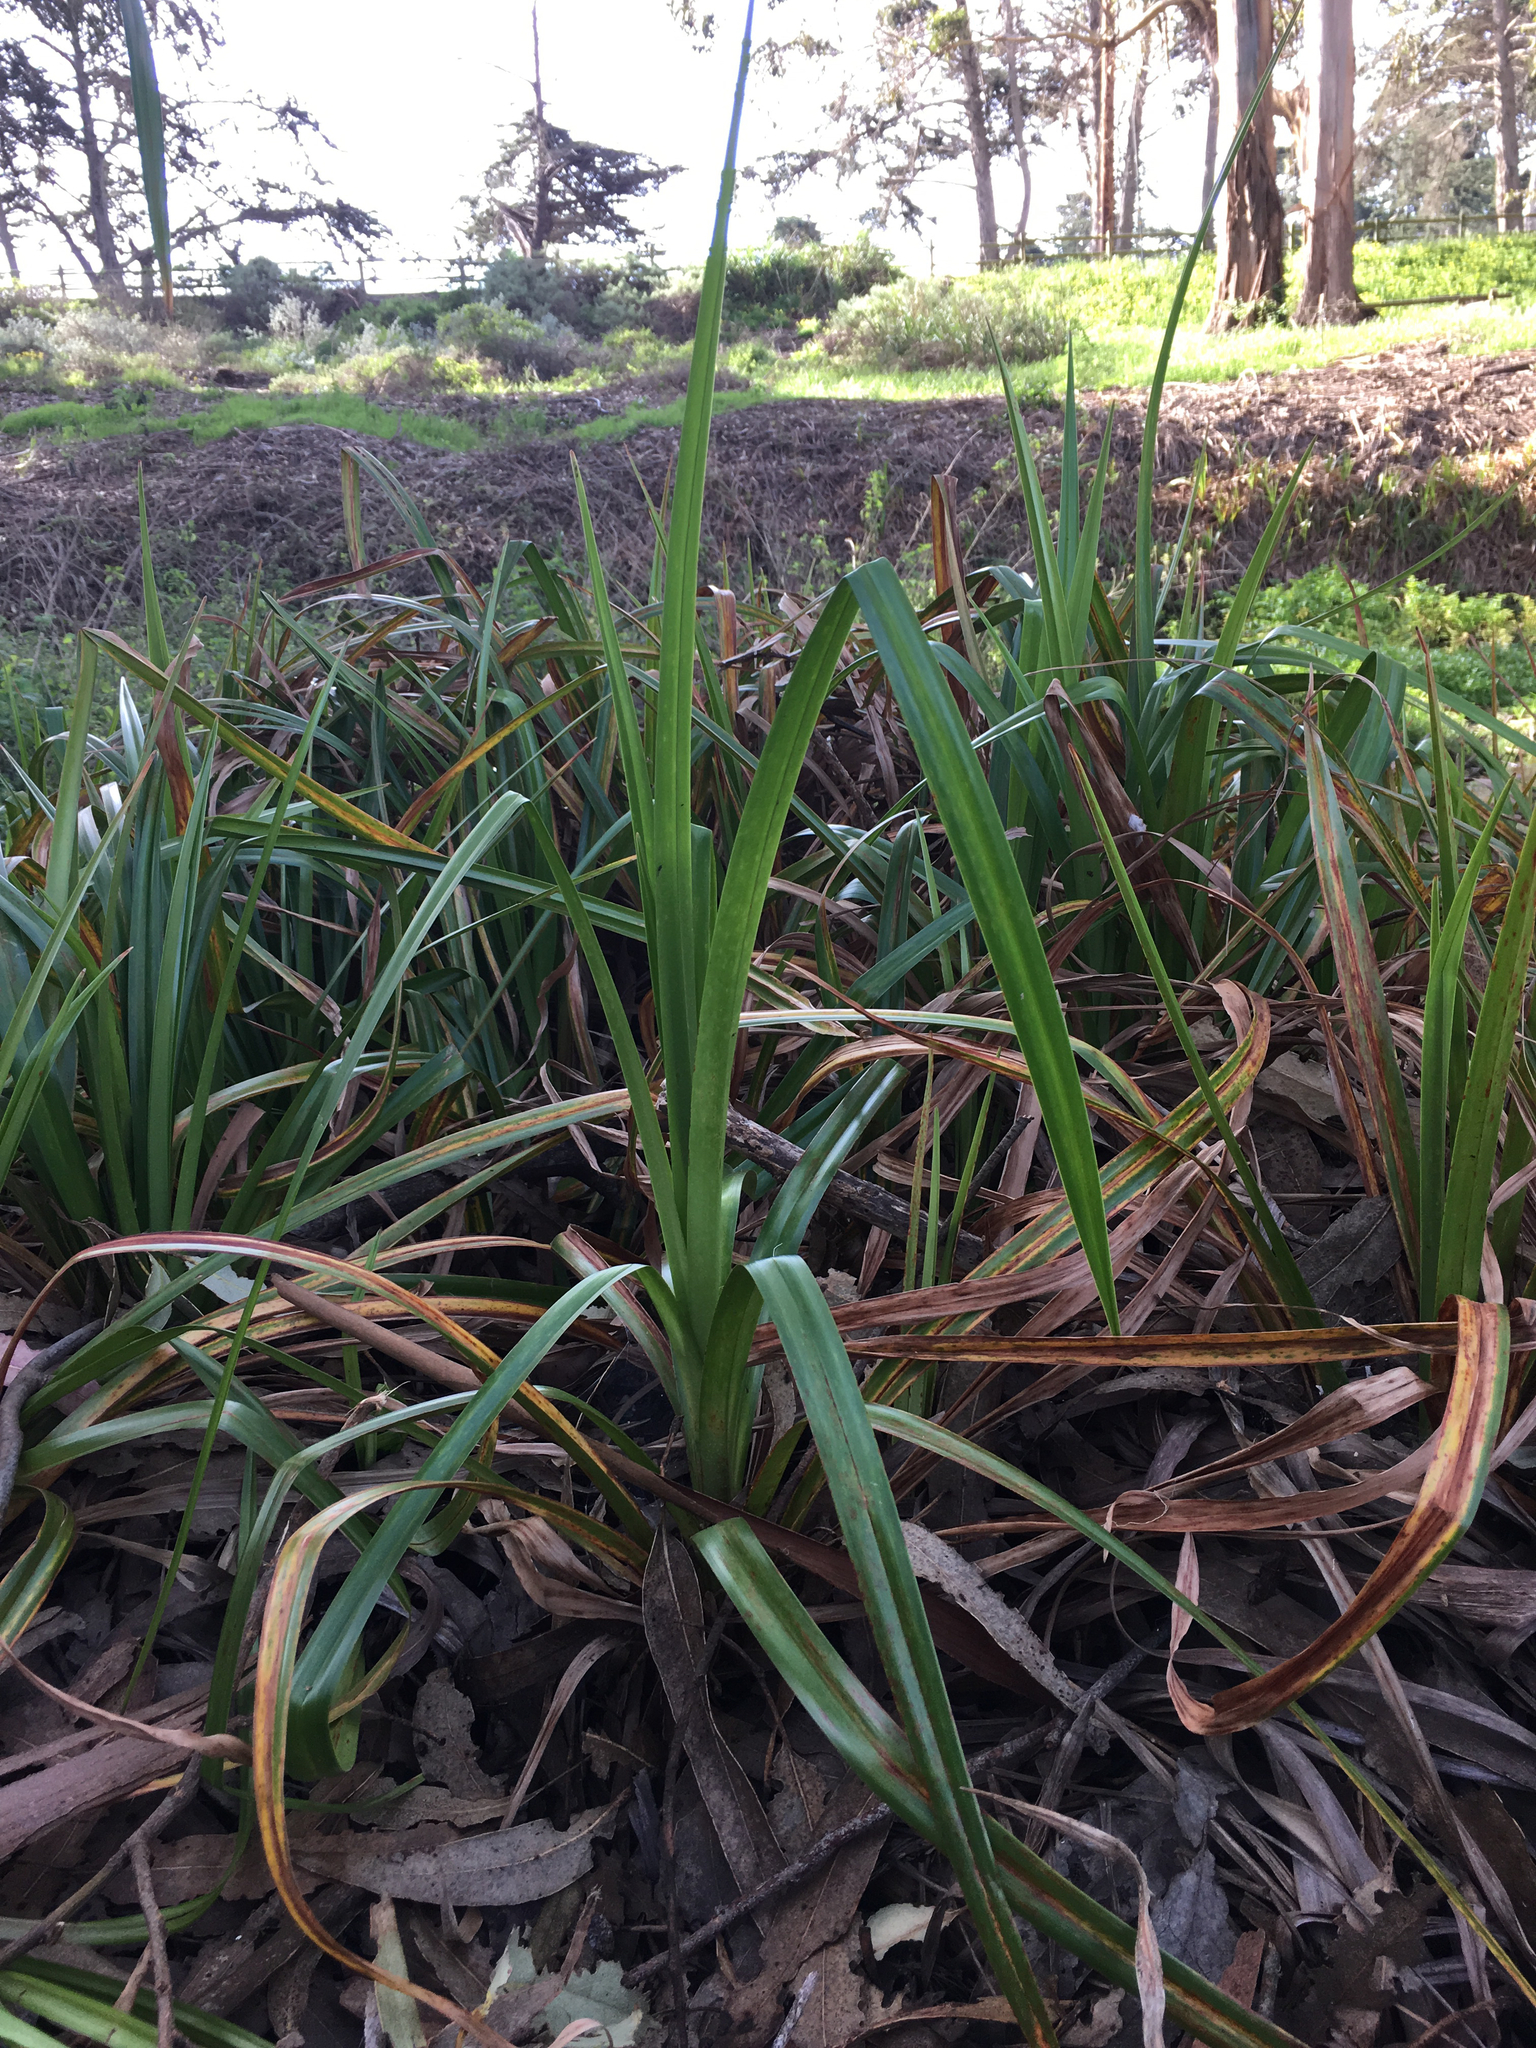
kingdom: Plantae
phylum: Tracheophyta
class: Liliopsida
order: Poales
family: Cyperaceae
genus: Scirpus
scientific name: Scirpus microcarpus
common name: Panicled bulrush
